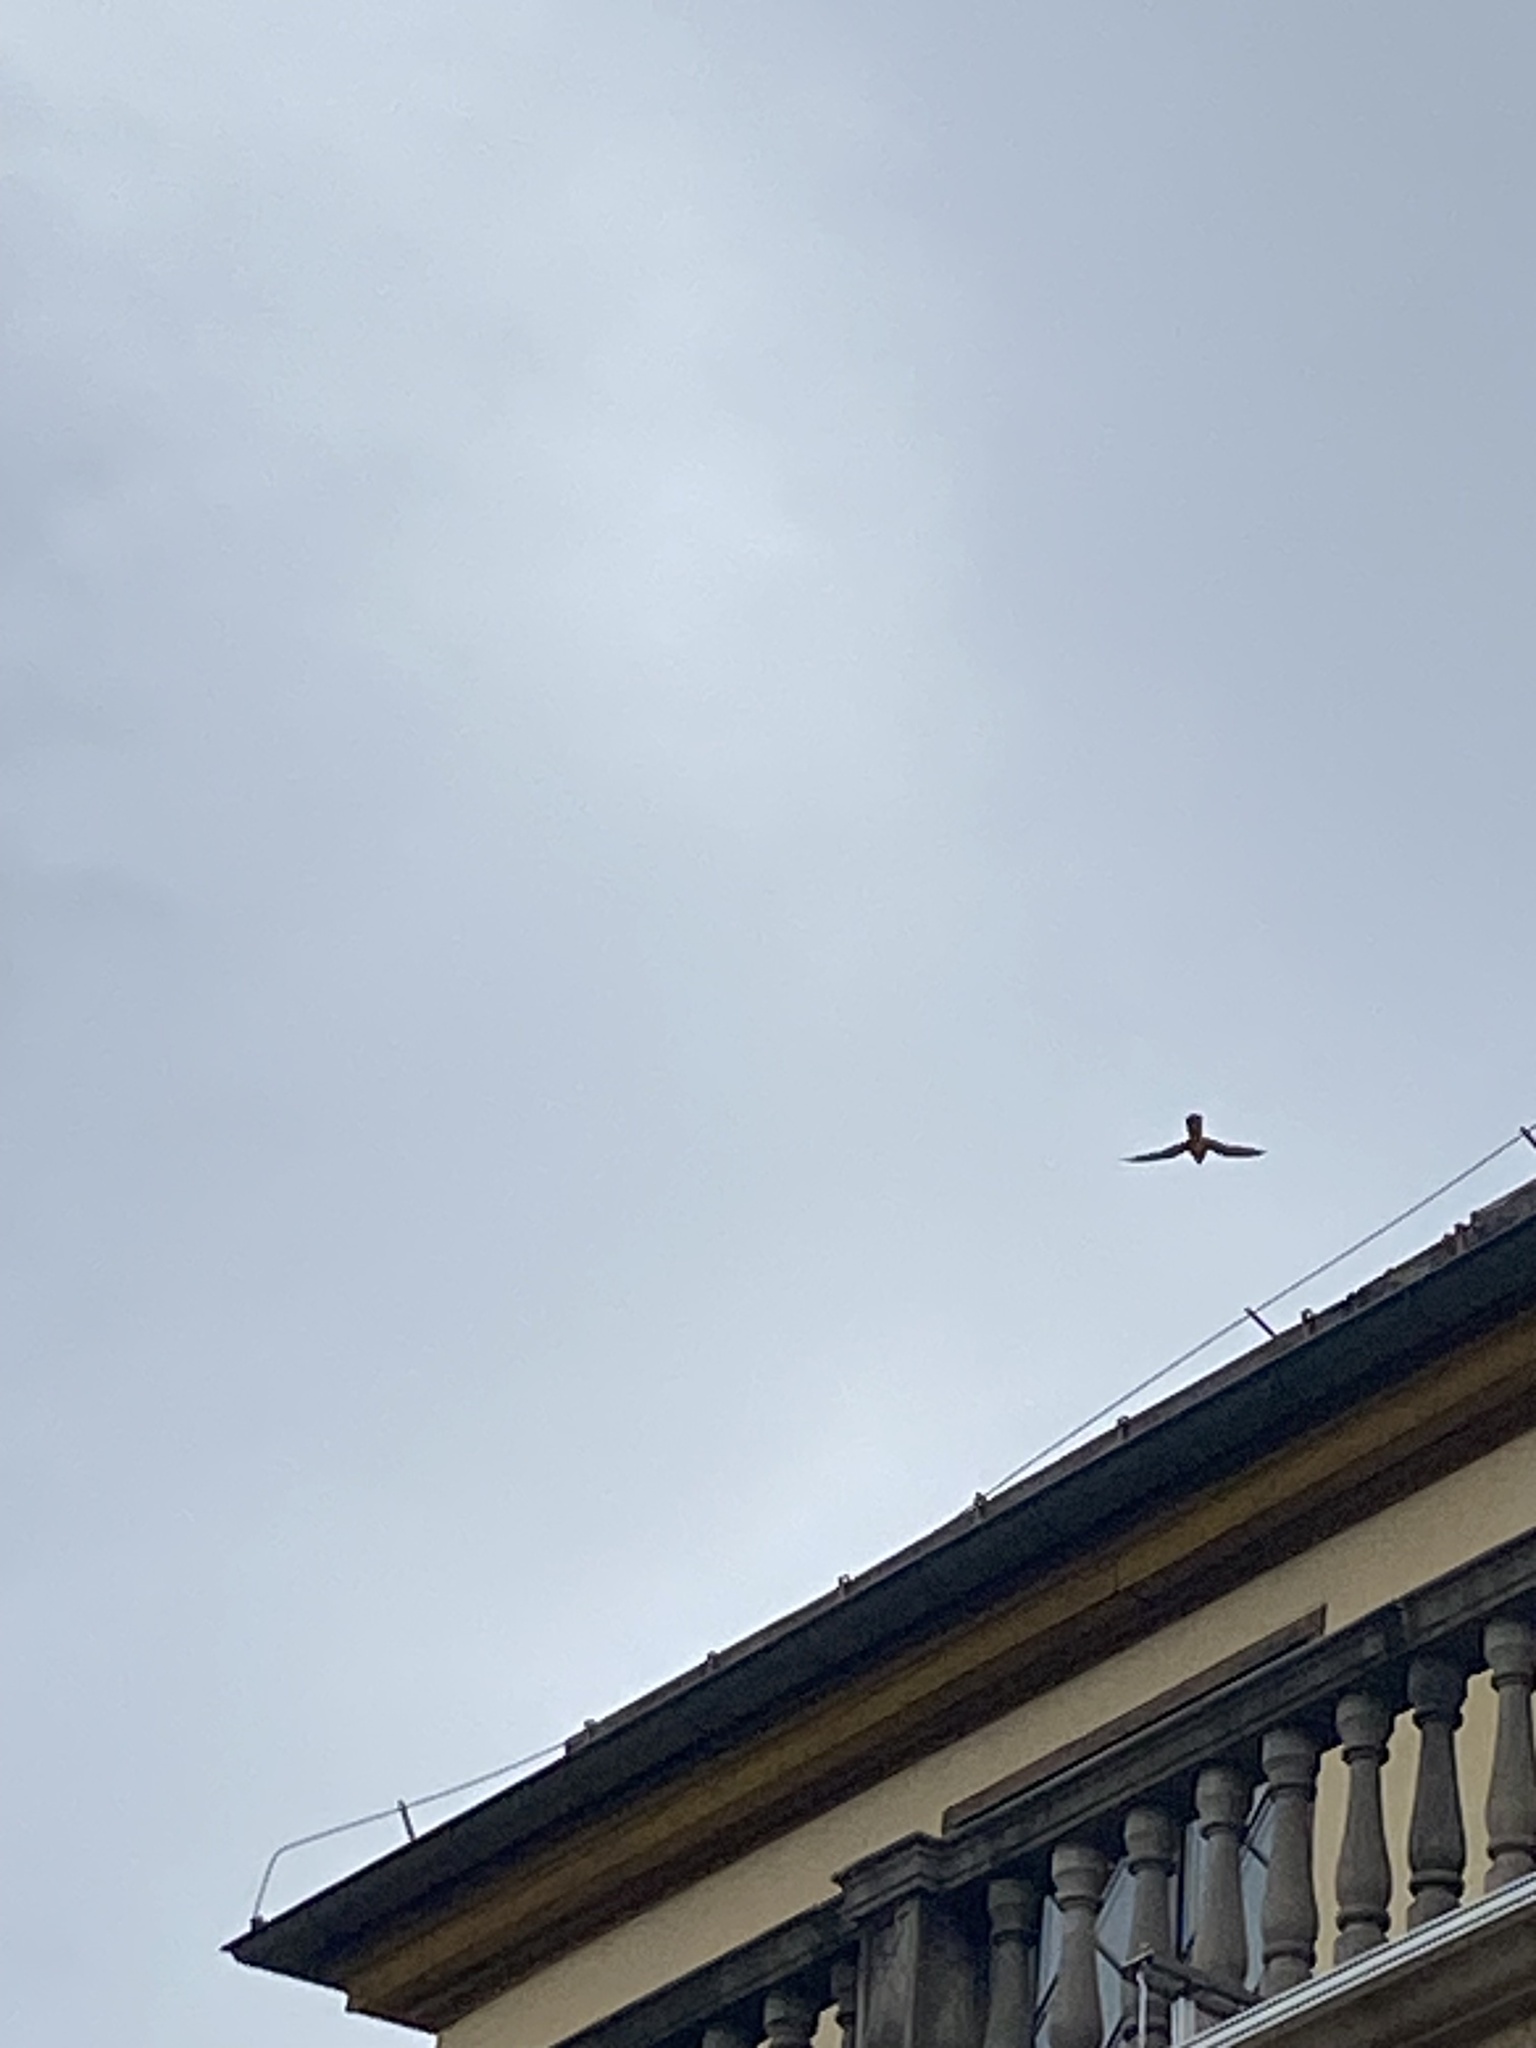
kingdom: Animalia
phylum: Chordata
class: Aves
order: Falconiformes
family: Falconidae
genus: Falco
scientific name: Falco tinnunculus
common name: Common kestrel
